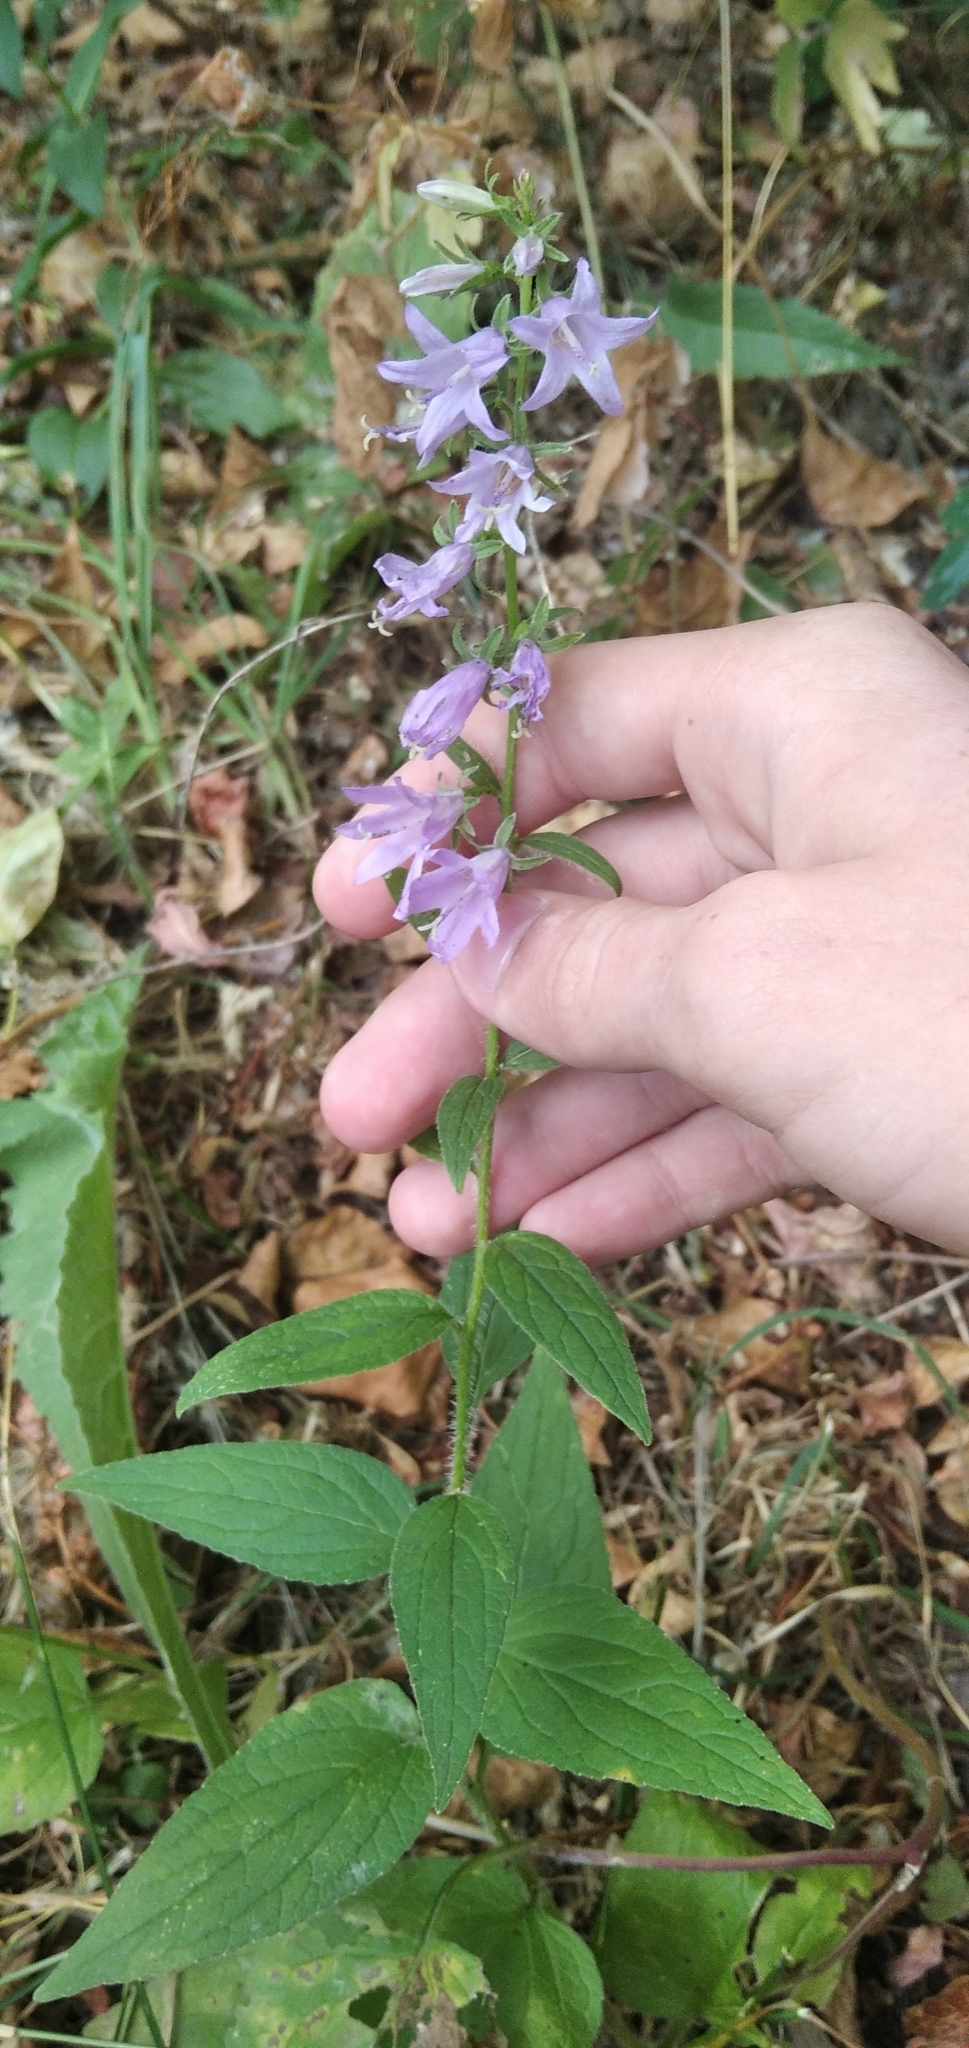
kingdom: Plantae
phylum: Tracheophyta
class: Magnoliopsida
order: Asterales
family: Campanulaceae
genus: Campanula
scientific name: Campanula rapunculoides
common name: Creeping bellflower
